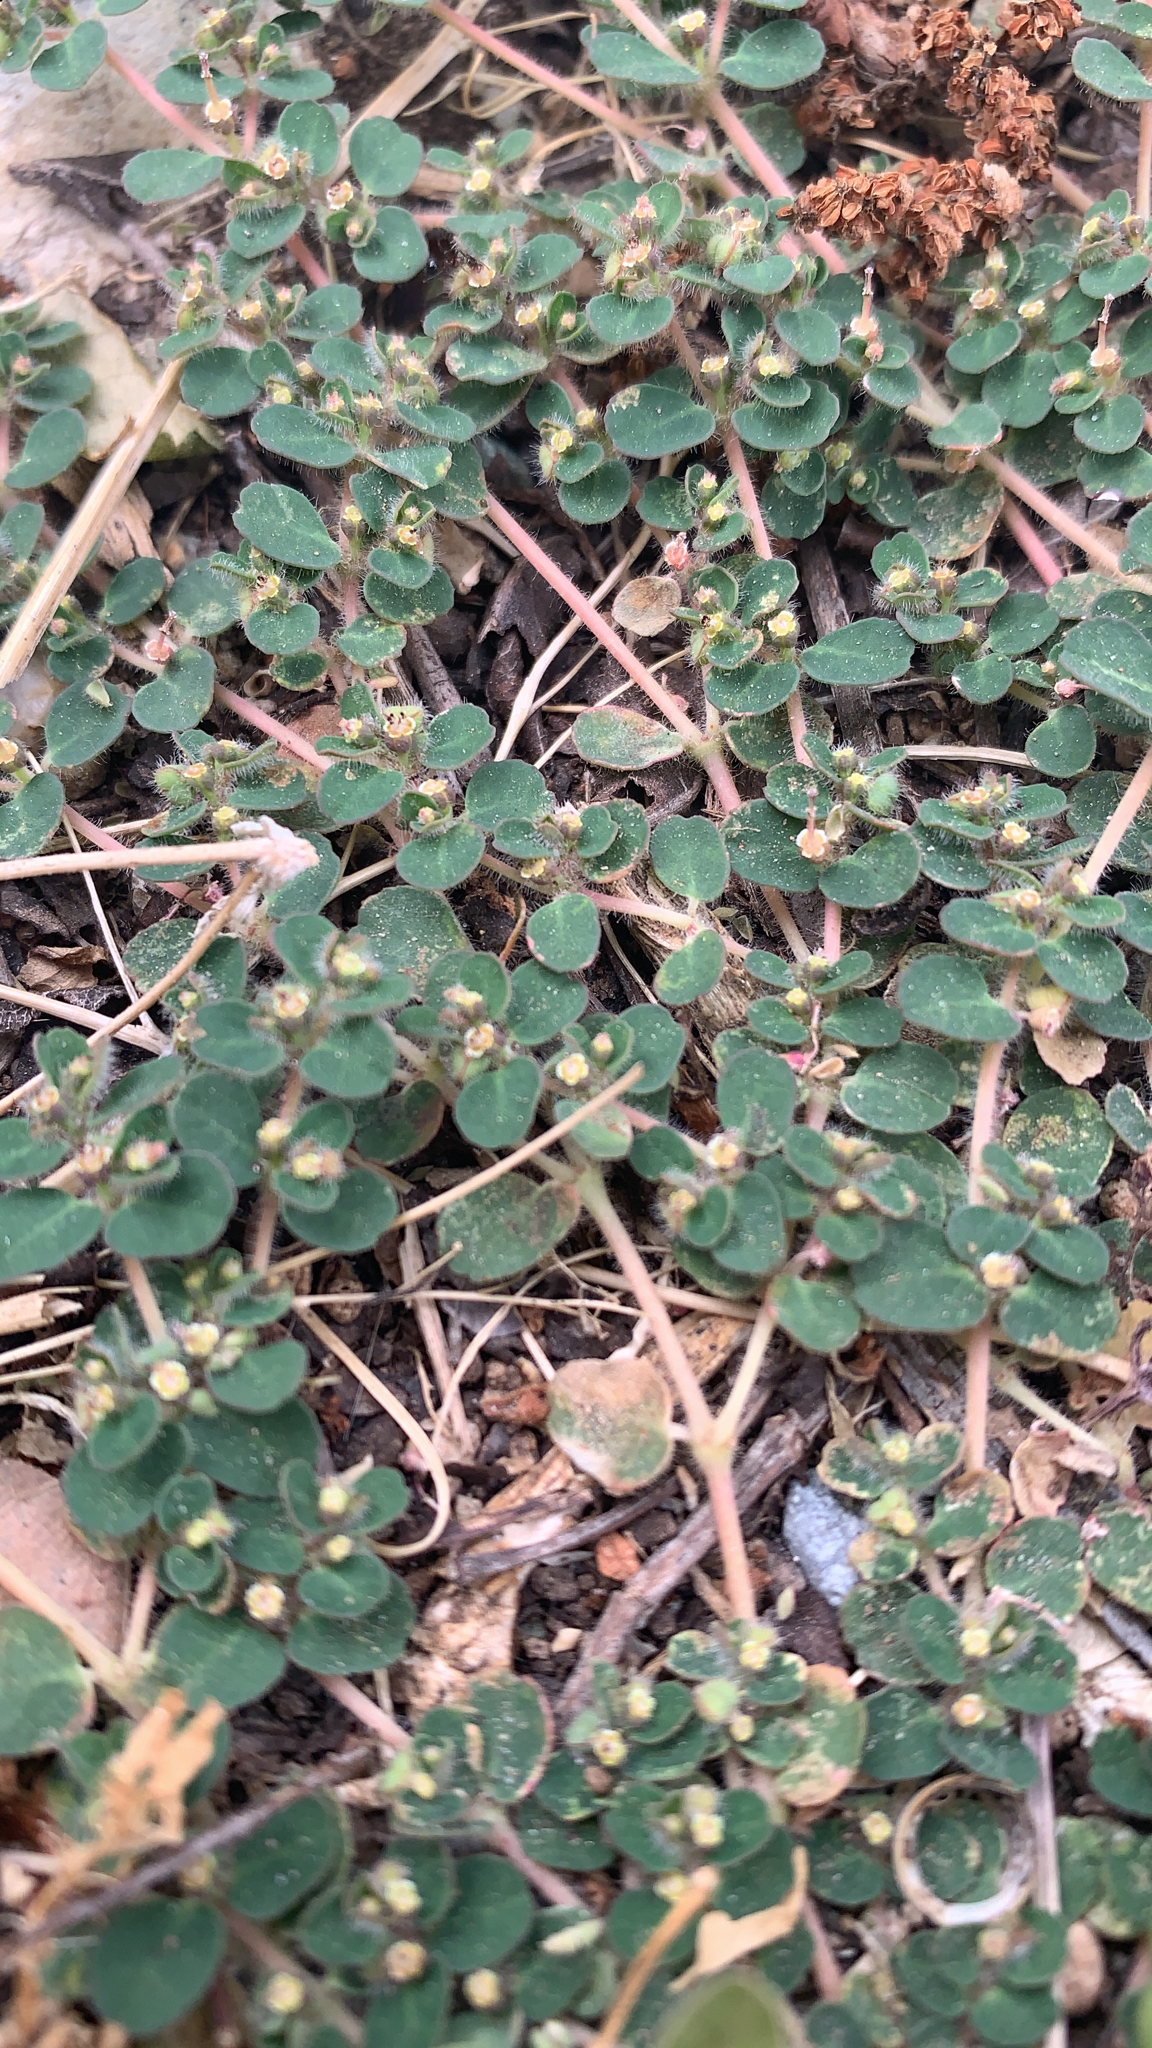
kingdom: Plantae
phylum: Tracheophyta
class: Magnoliopsida
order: Malpighiales
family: Euphorbiaceae
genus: Euphorbia
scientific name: Euphorbia chamaesyce
